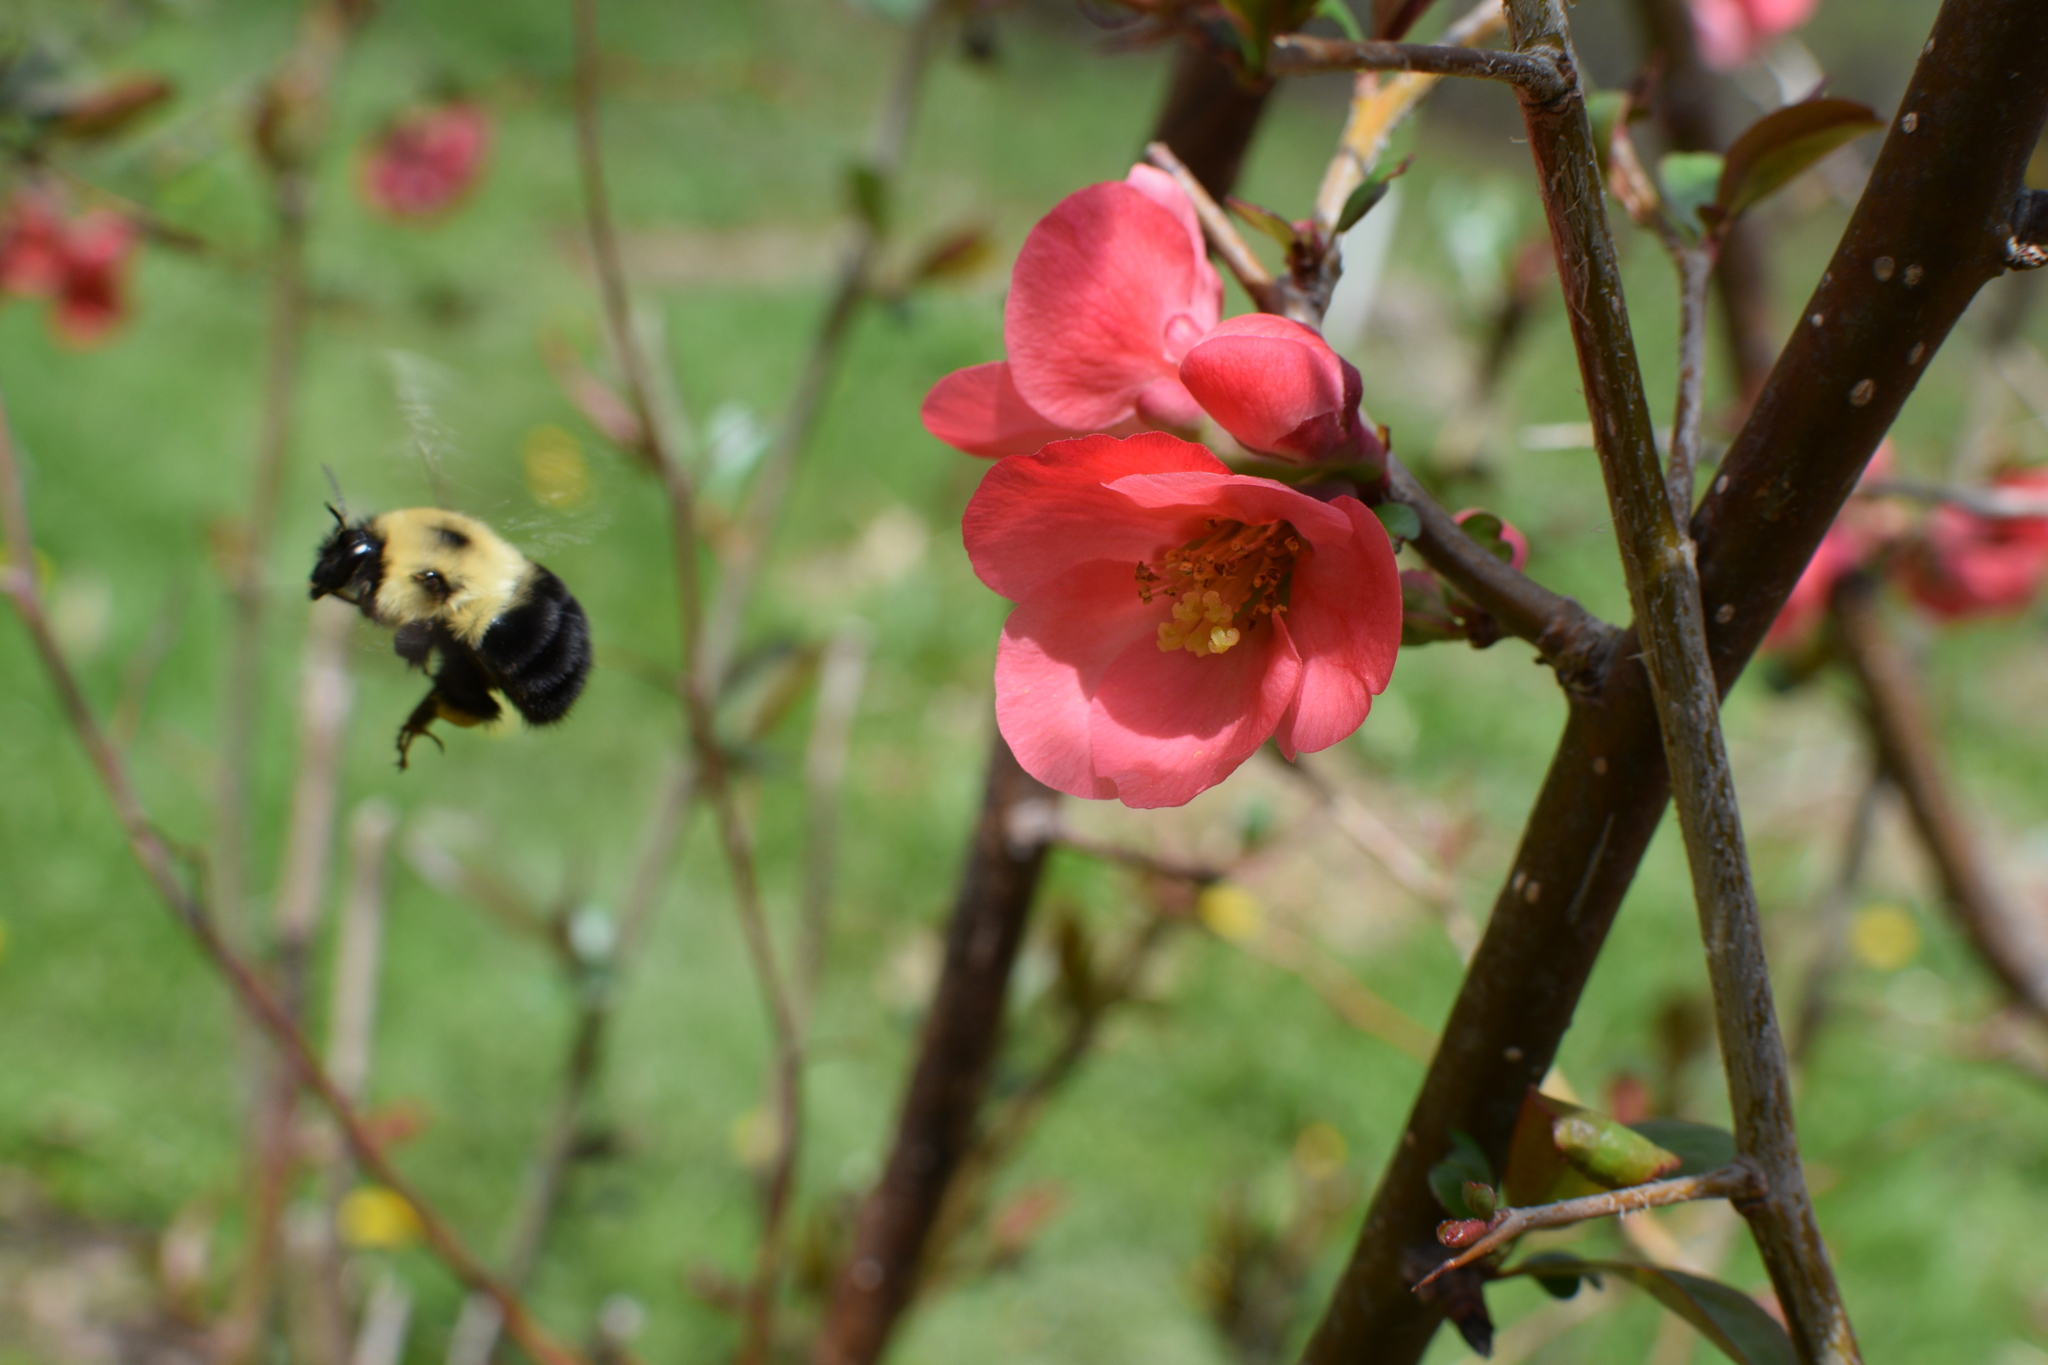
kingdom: Animalia
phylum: Arthropoda
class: Insecta
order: Hymenoptera
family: Apidae
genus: Bombus
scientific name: Bombus bimaculatus
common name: Two-spotted bumble bee
